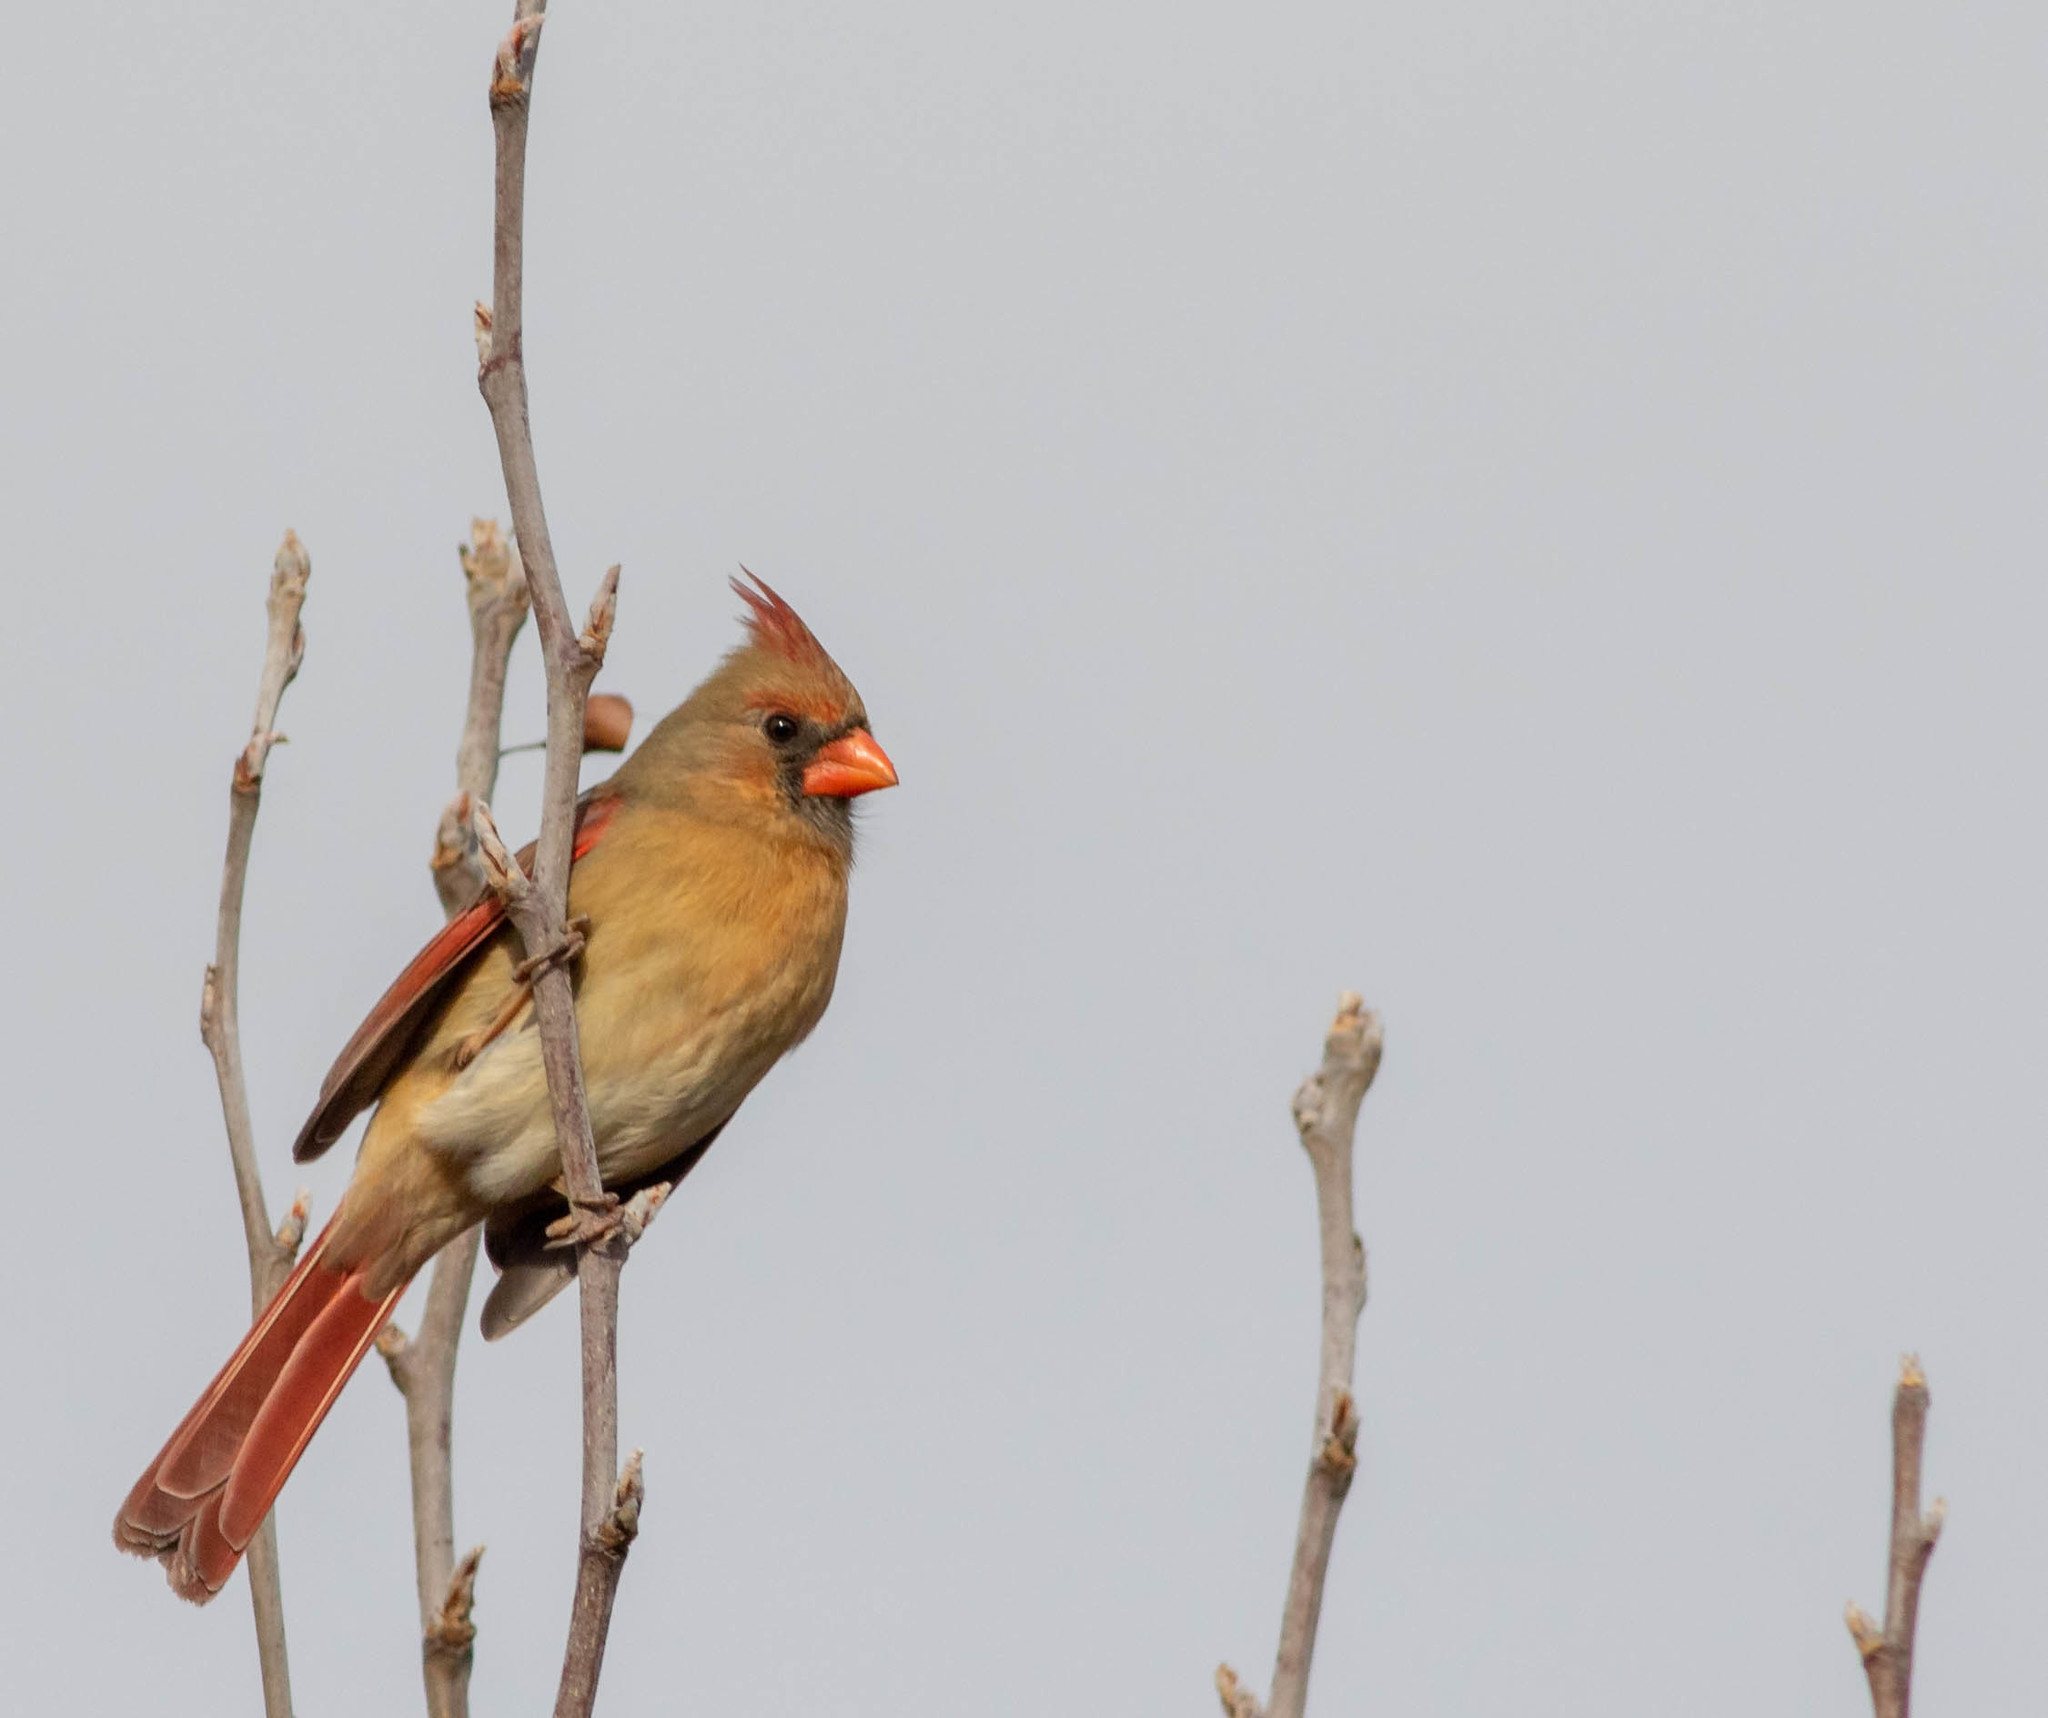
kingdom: Animalia
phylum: Chordata
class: Aves
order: Passeriformes
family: Cardinalidae
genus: Cardinalis
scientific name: Cardinalis cardinalis
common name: Northern cardinal
